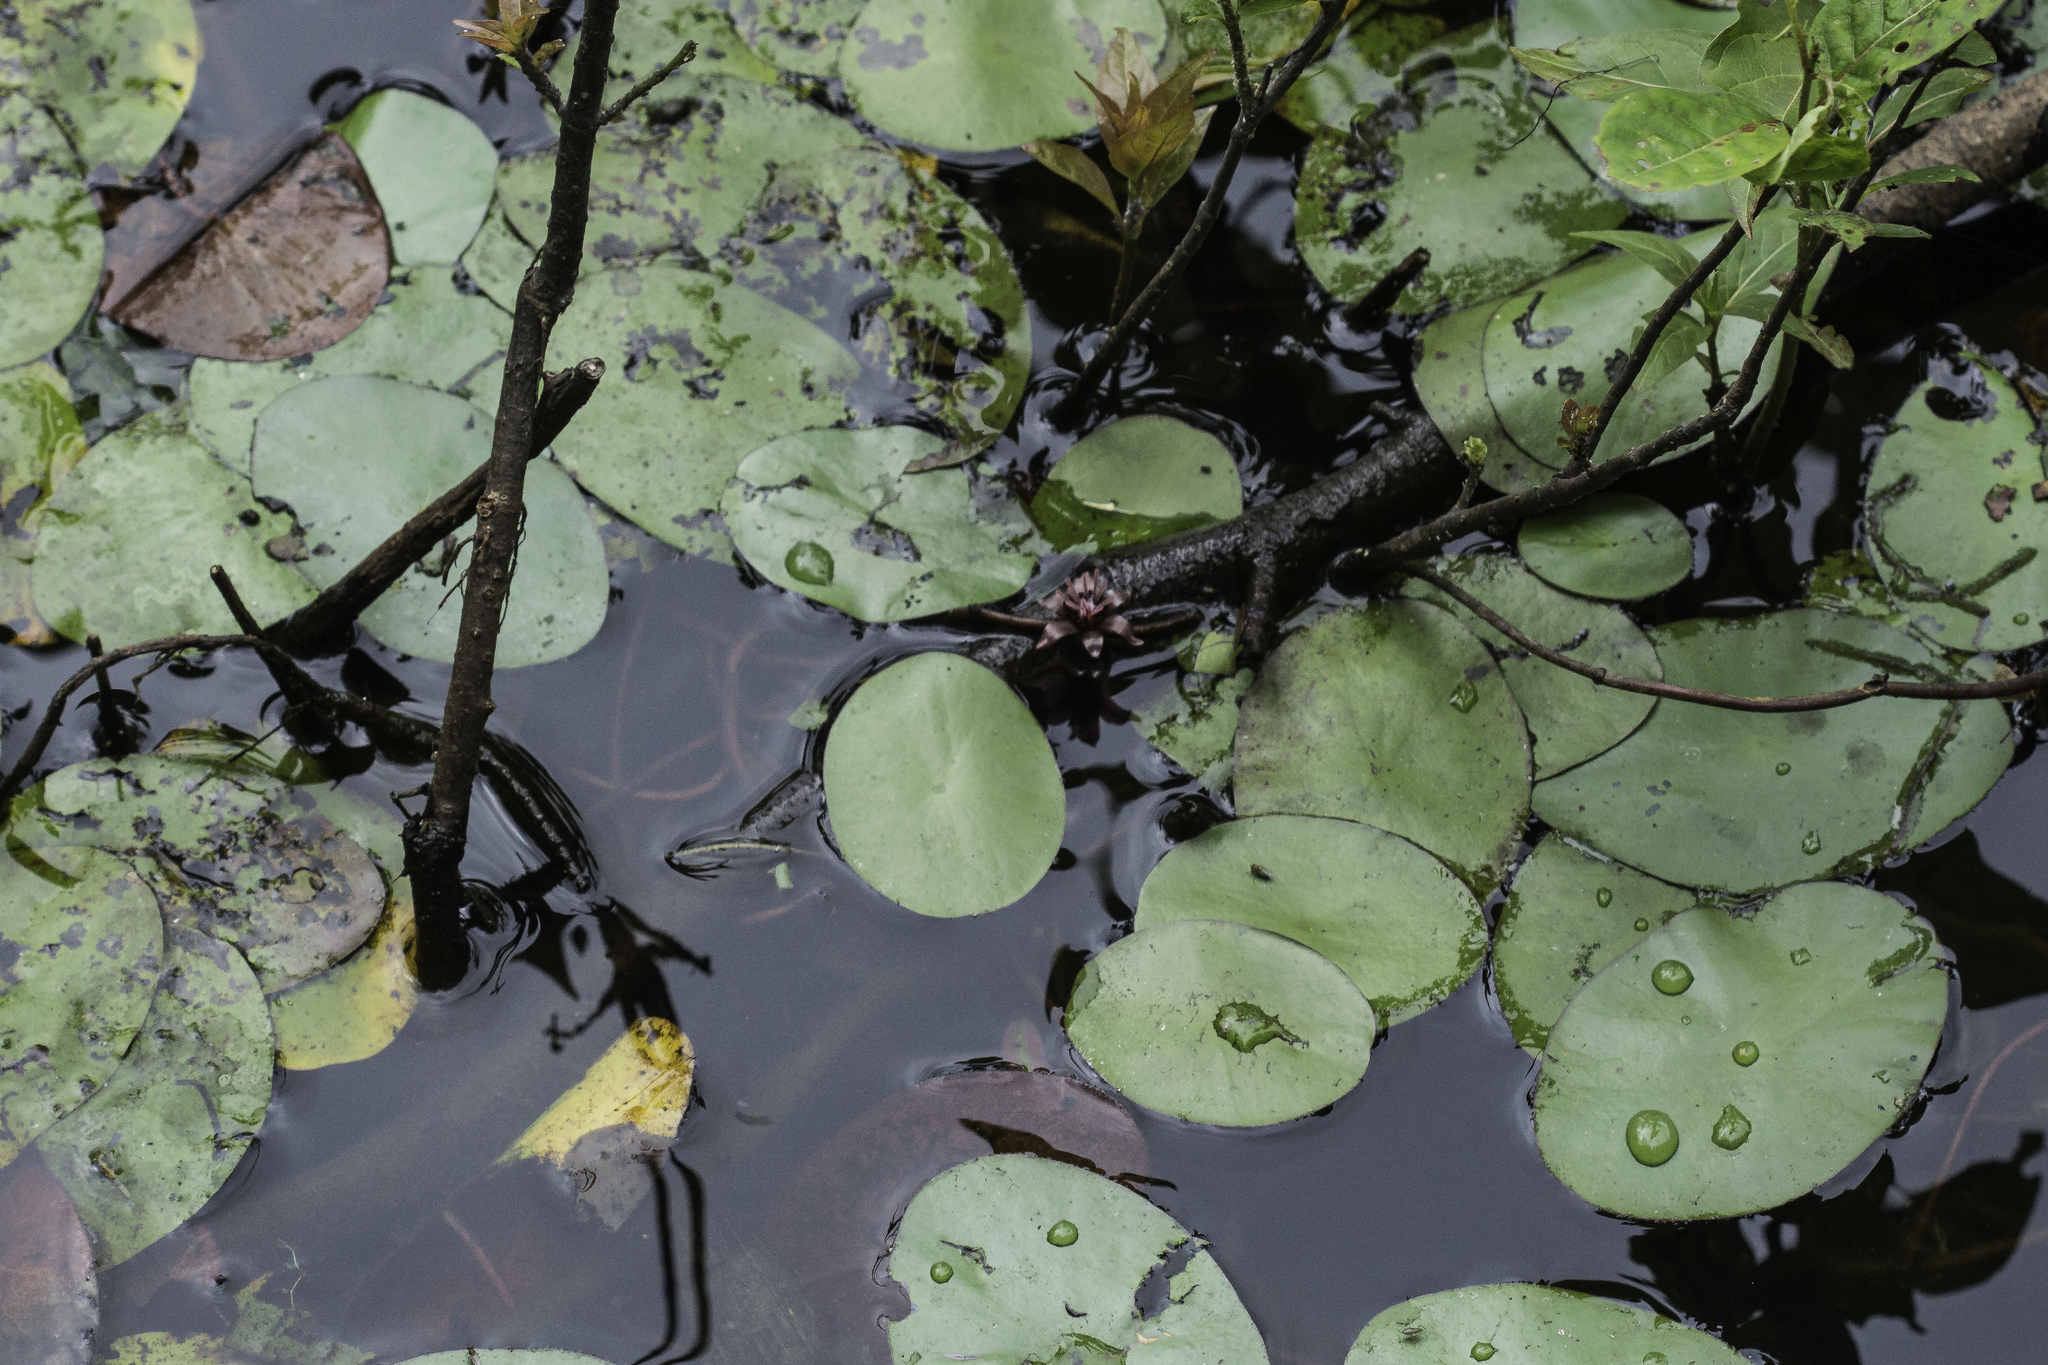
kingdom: Plantae
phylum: Tracheophyta
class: Magnoliopsida
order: Nymphaeales
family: Cabombaceae
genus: Brasenia
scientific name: Brasenia schreberi
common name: Water-shield
